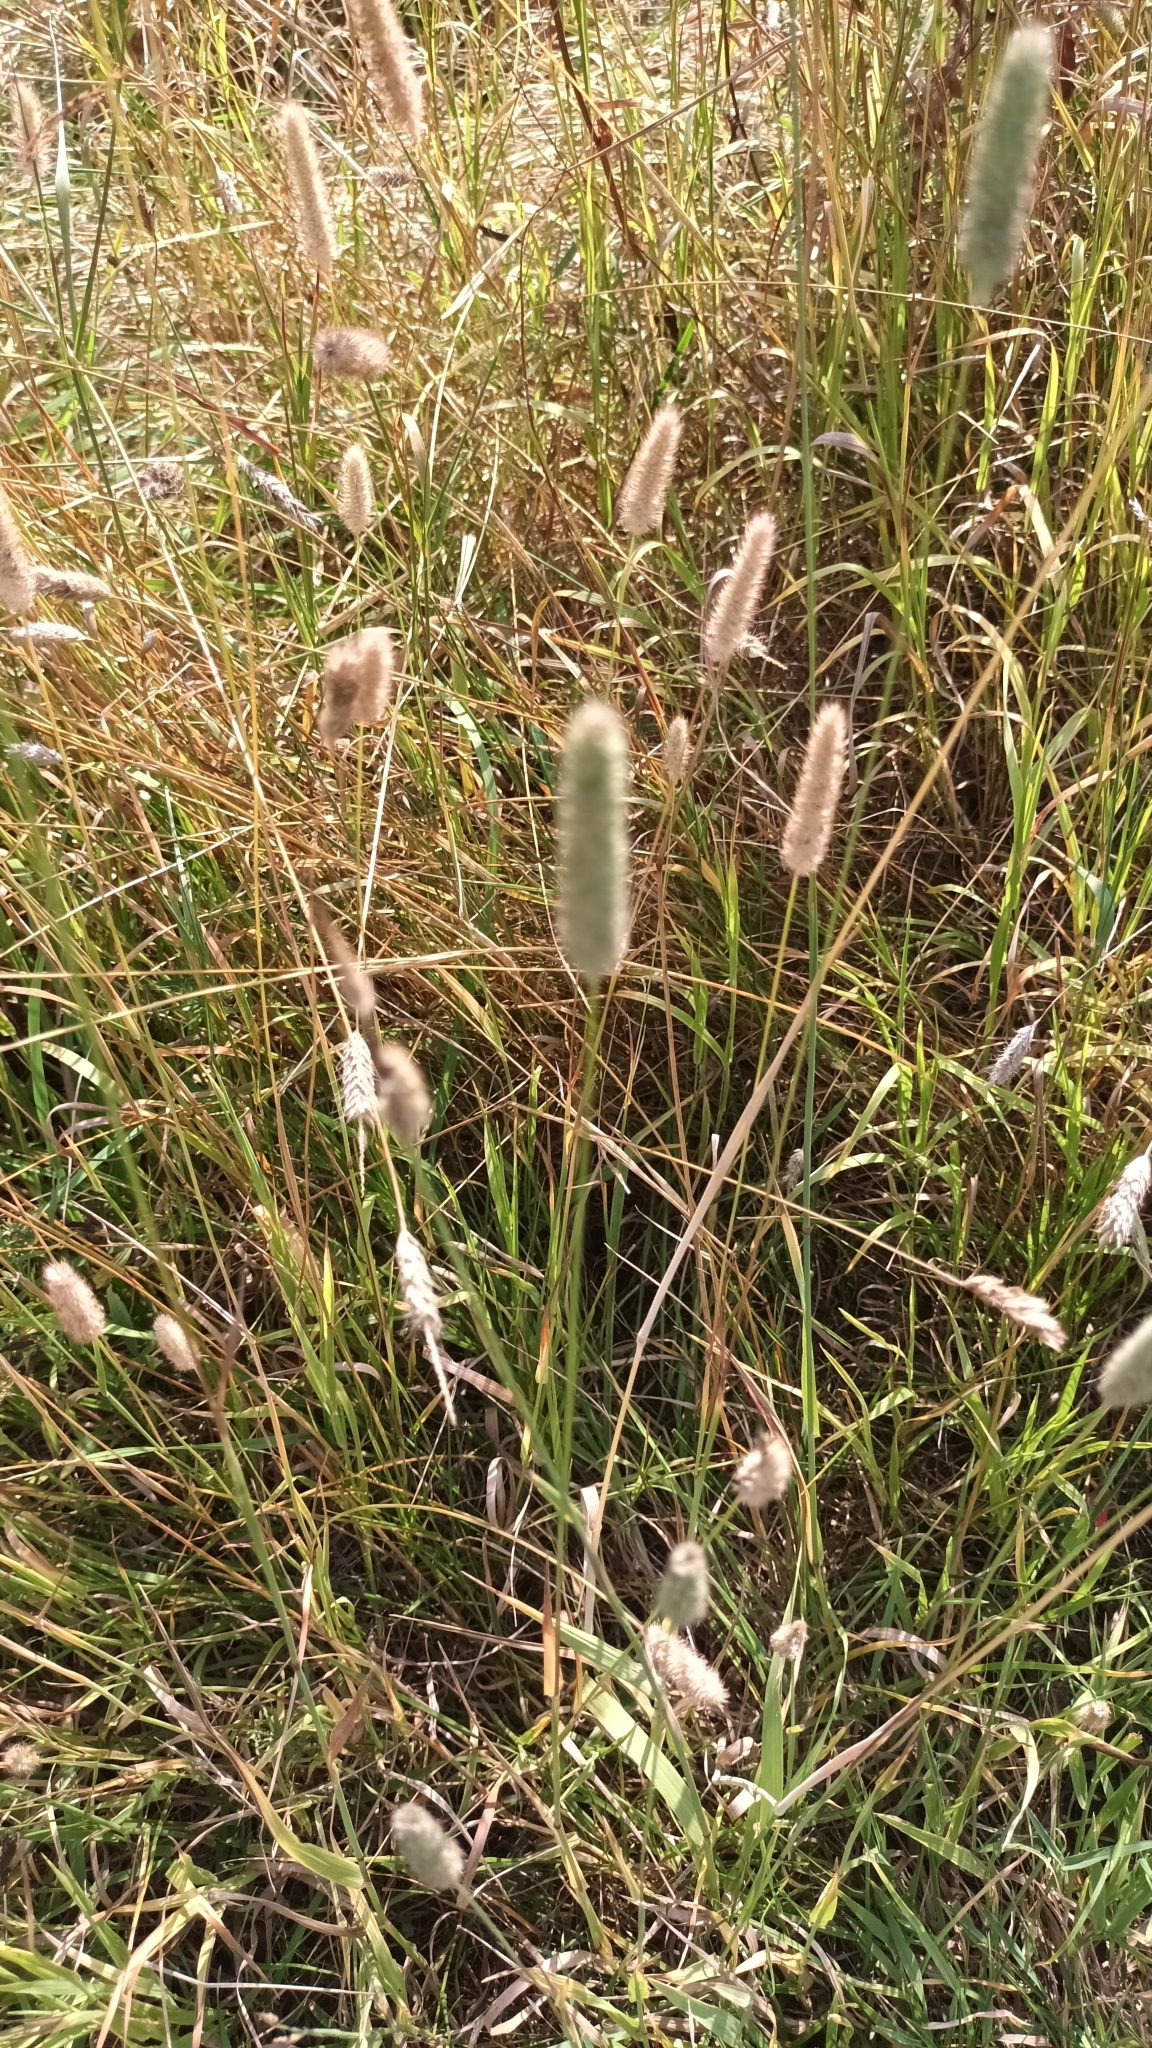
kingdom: Plantae
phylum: Tracheophyta
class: Liliopsida
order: Poales
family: Poaceae
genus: Phleum
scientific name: Phleum pratense
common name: Timothy grass
